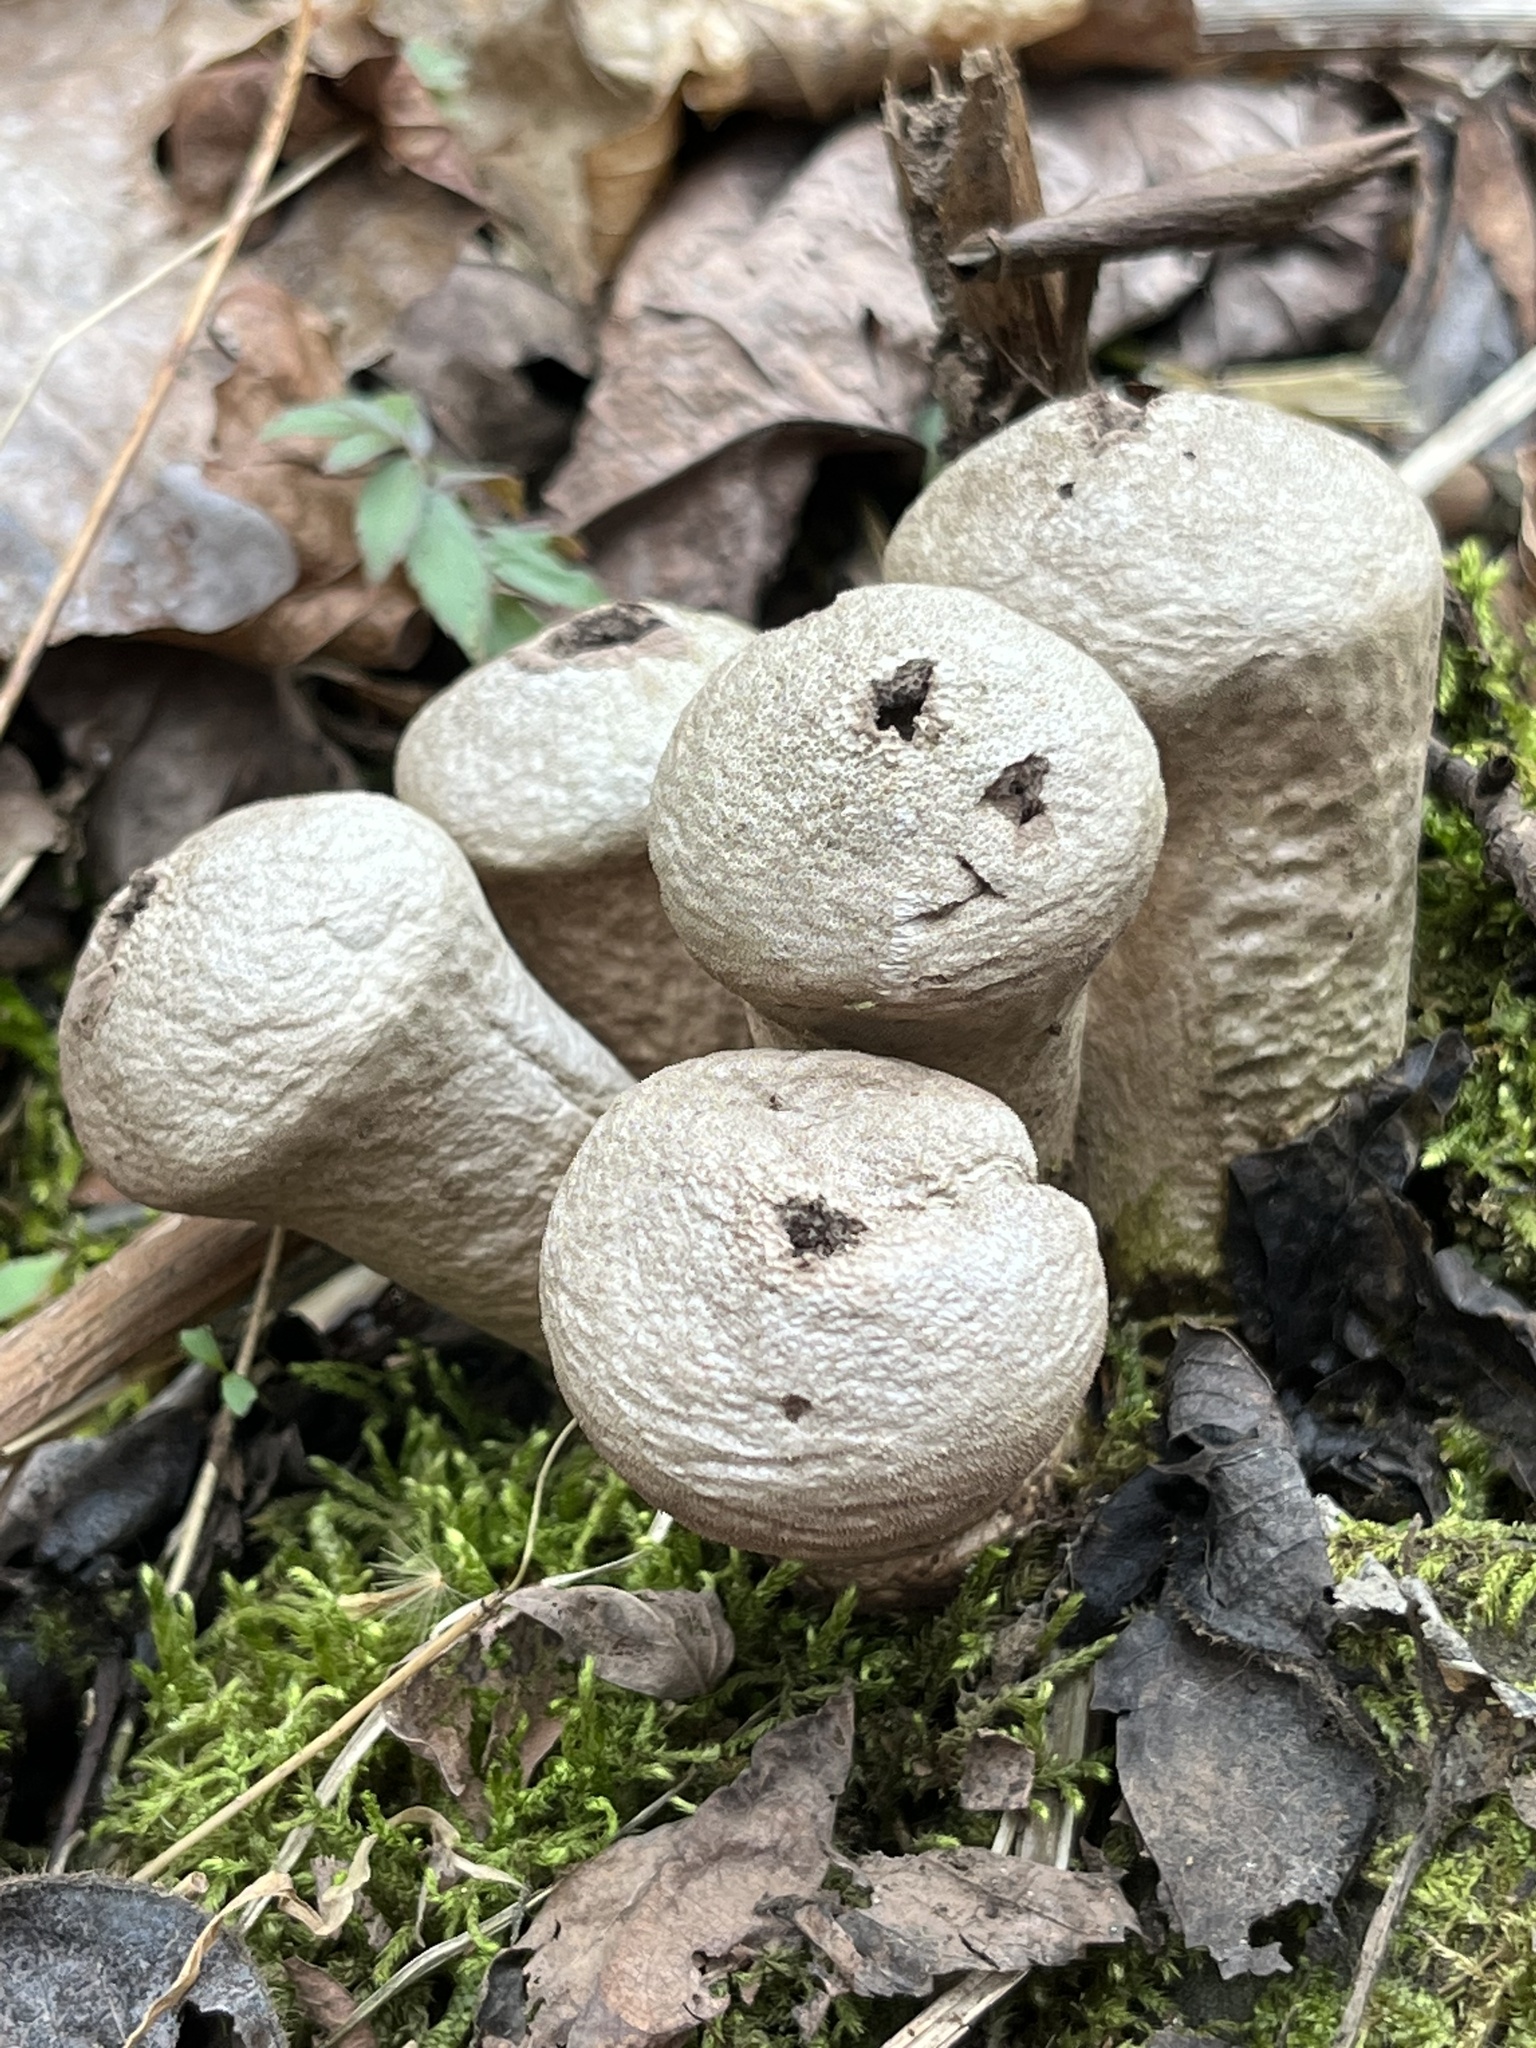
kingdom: Fungi
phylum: Basidiomycota
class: Agaricomycetes
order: Agaricales
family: Lycoperdaceae
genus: Apioperdon
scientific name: Apioperdon pyriforme
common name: Pear-shaped puffball
